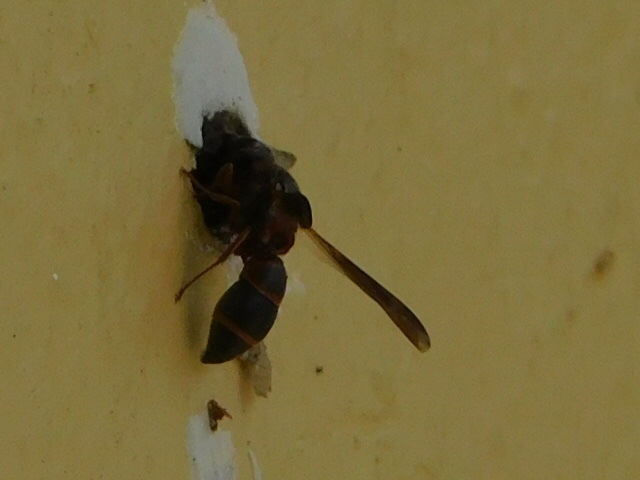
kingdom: Animalia
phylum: Arthropoda
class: Insecta
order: Hymenoptera
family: Eumenidae
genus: Parancistrocerus
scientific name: Parancistrocerus fulvipes
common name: Potter wasp
